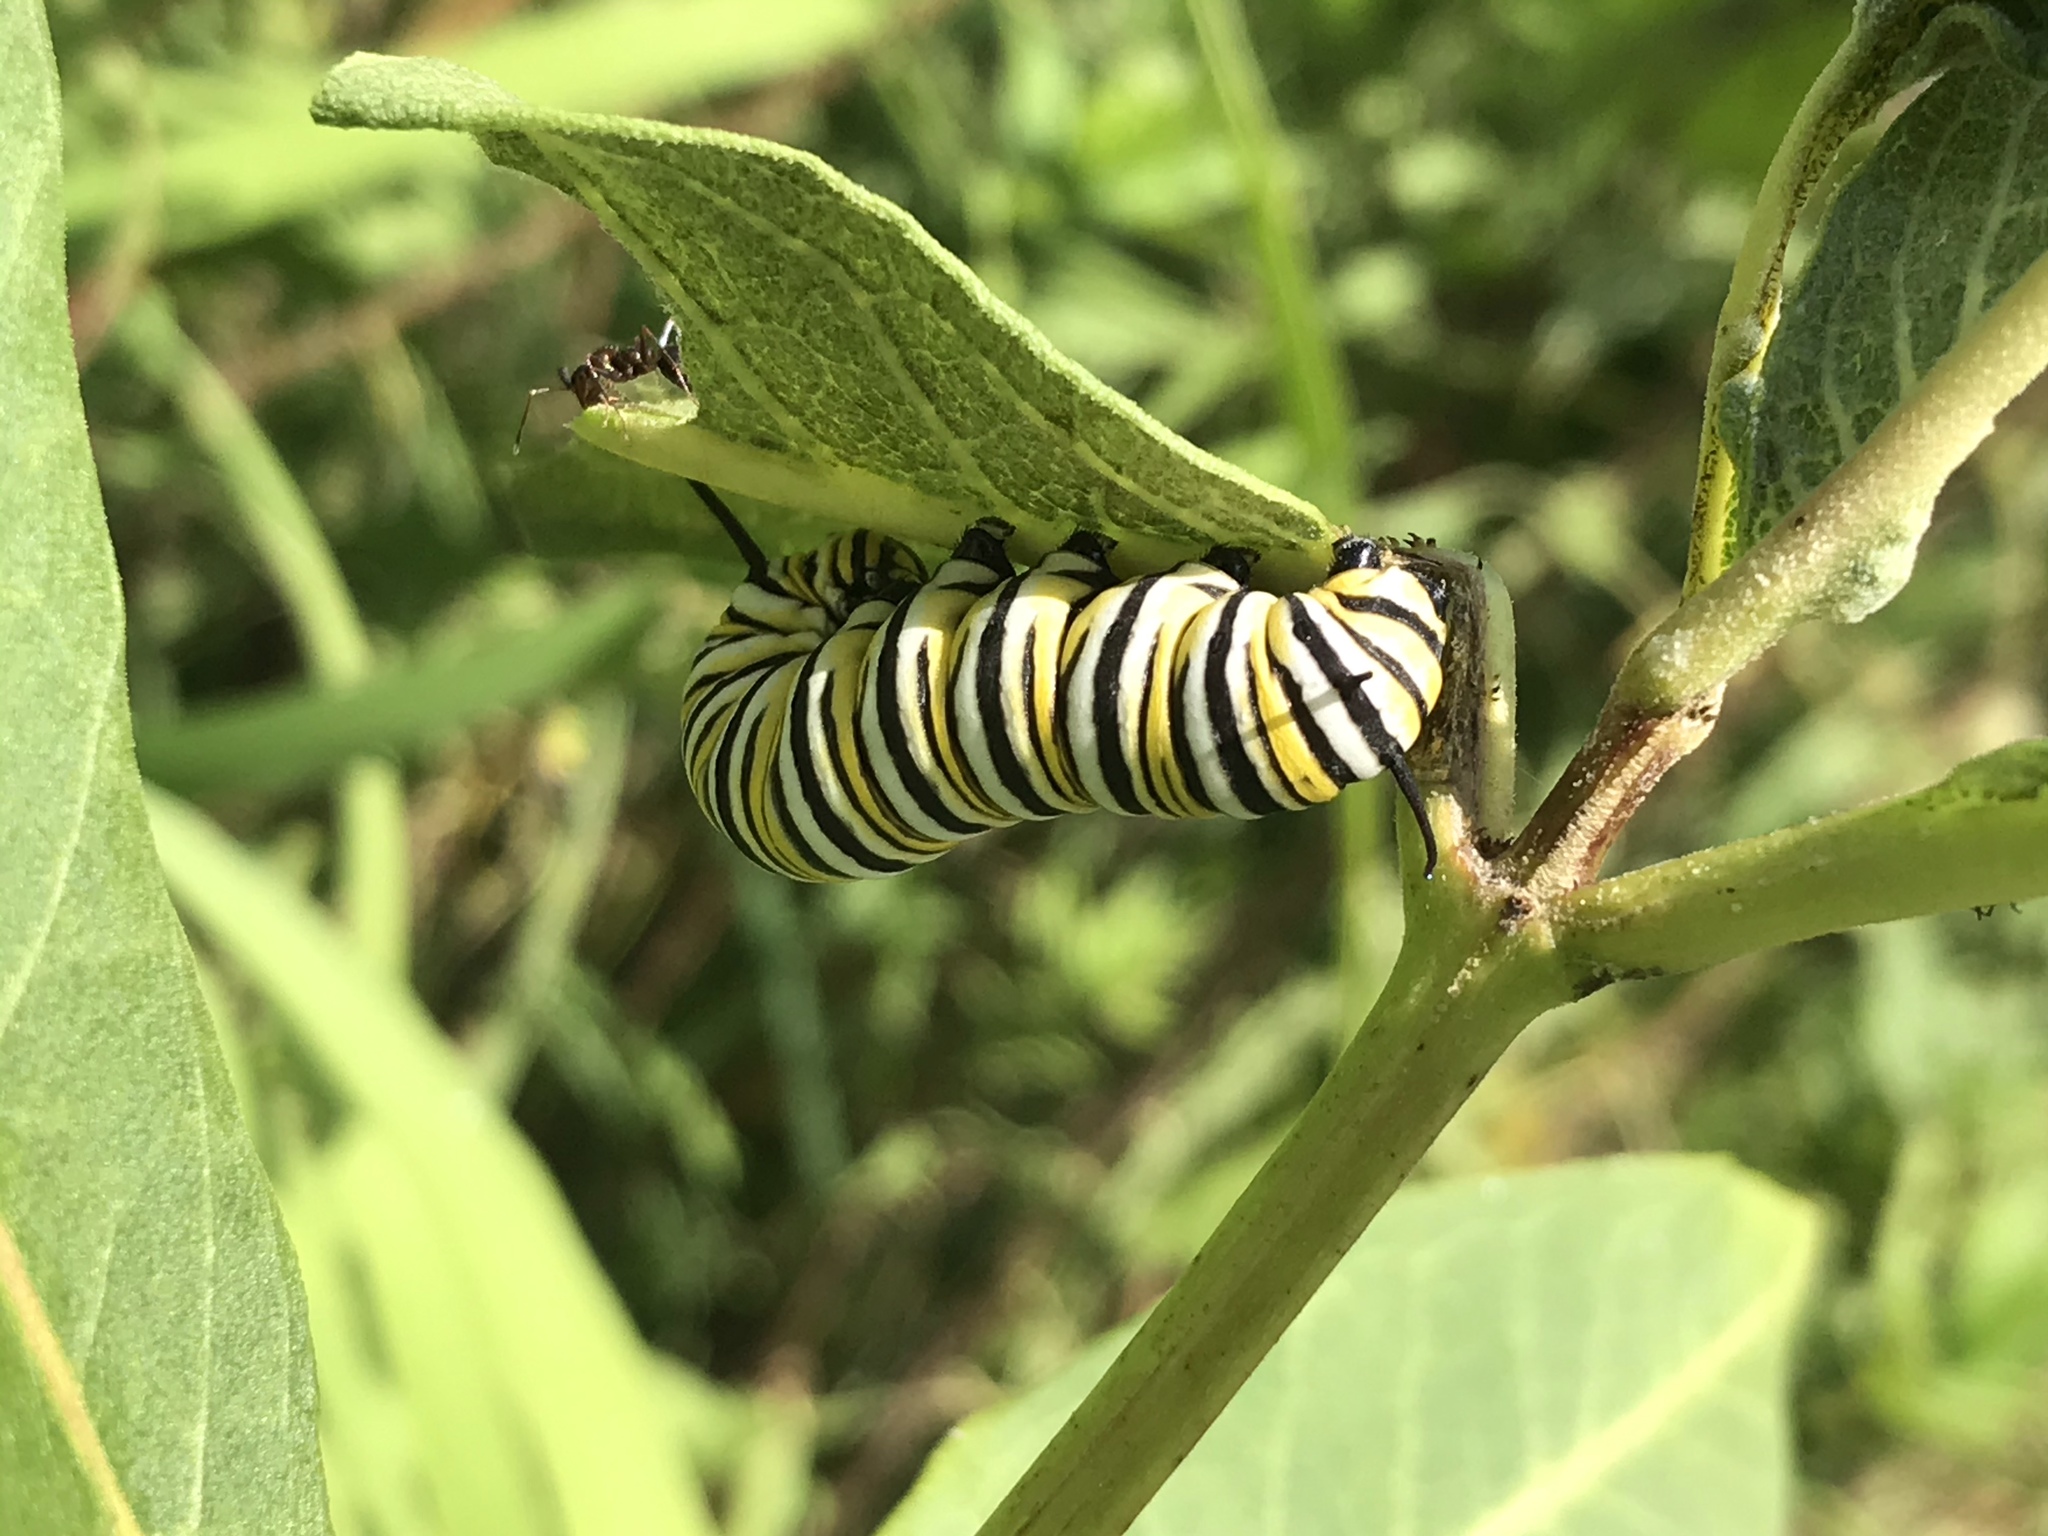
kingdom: Animalia
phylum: Arthropoda
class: Insecta
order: Lepidoptera
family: Nymphalidae
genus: Danaus
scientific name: Danaus plexippus
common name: Monarch
